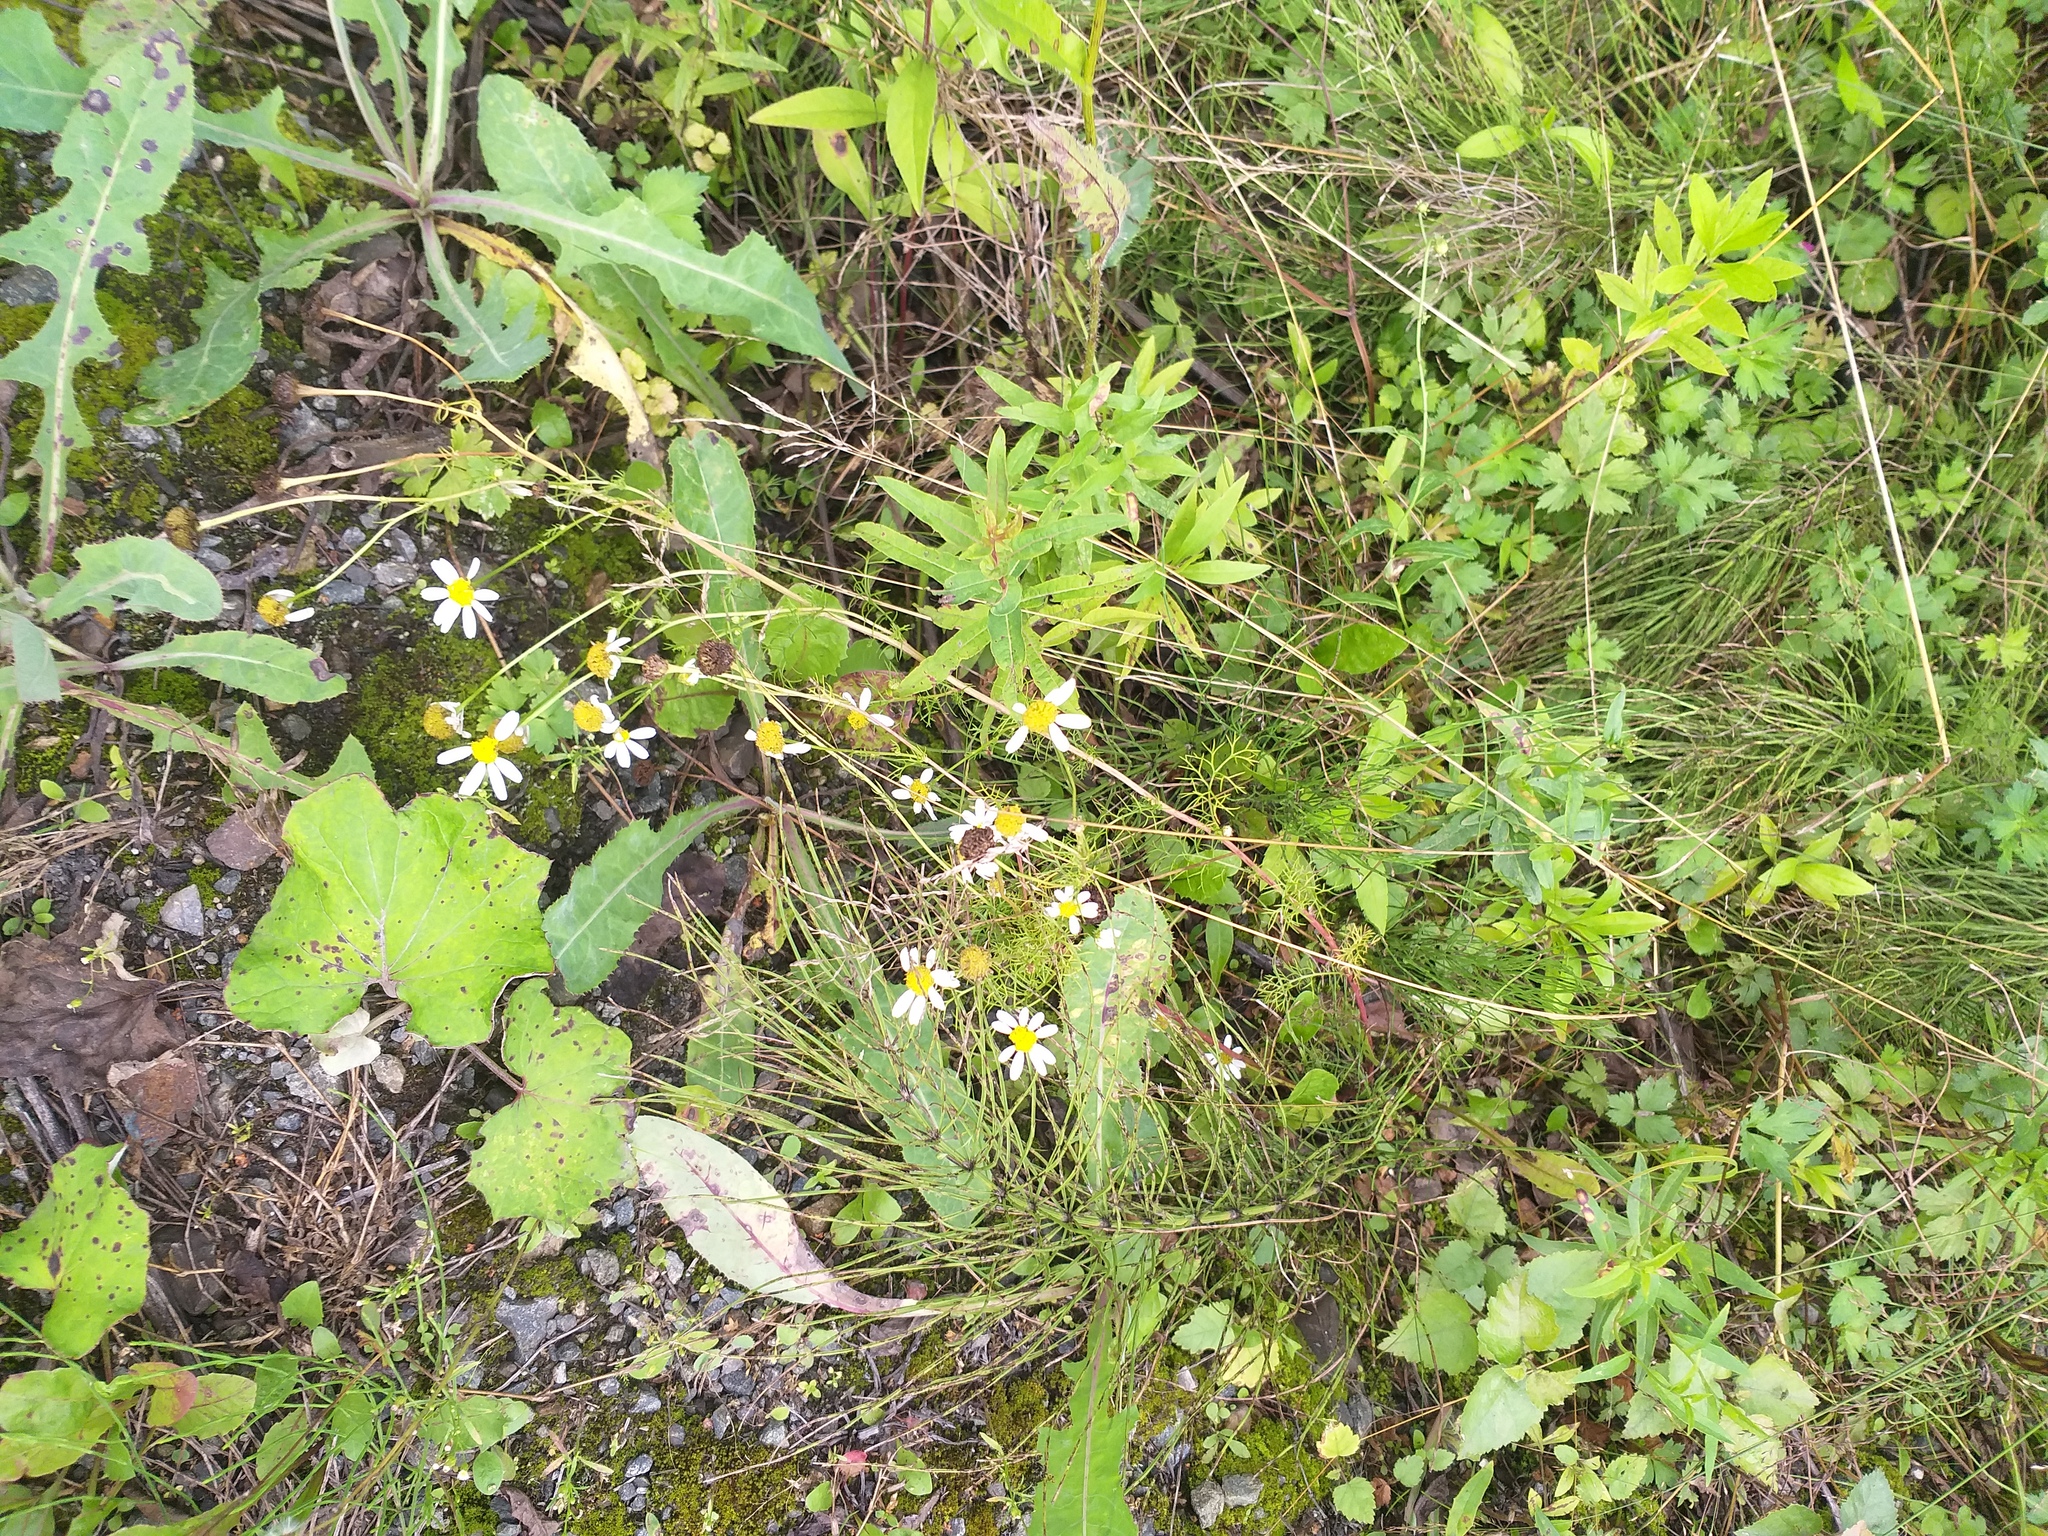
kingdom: Plantae
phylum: Tracheophyta
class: Magnoliopsida
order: Asterales
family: Asteraceae
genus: Tripleurospermum
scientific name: Tripleurospermum inodorum
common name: Scentless mayweed
